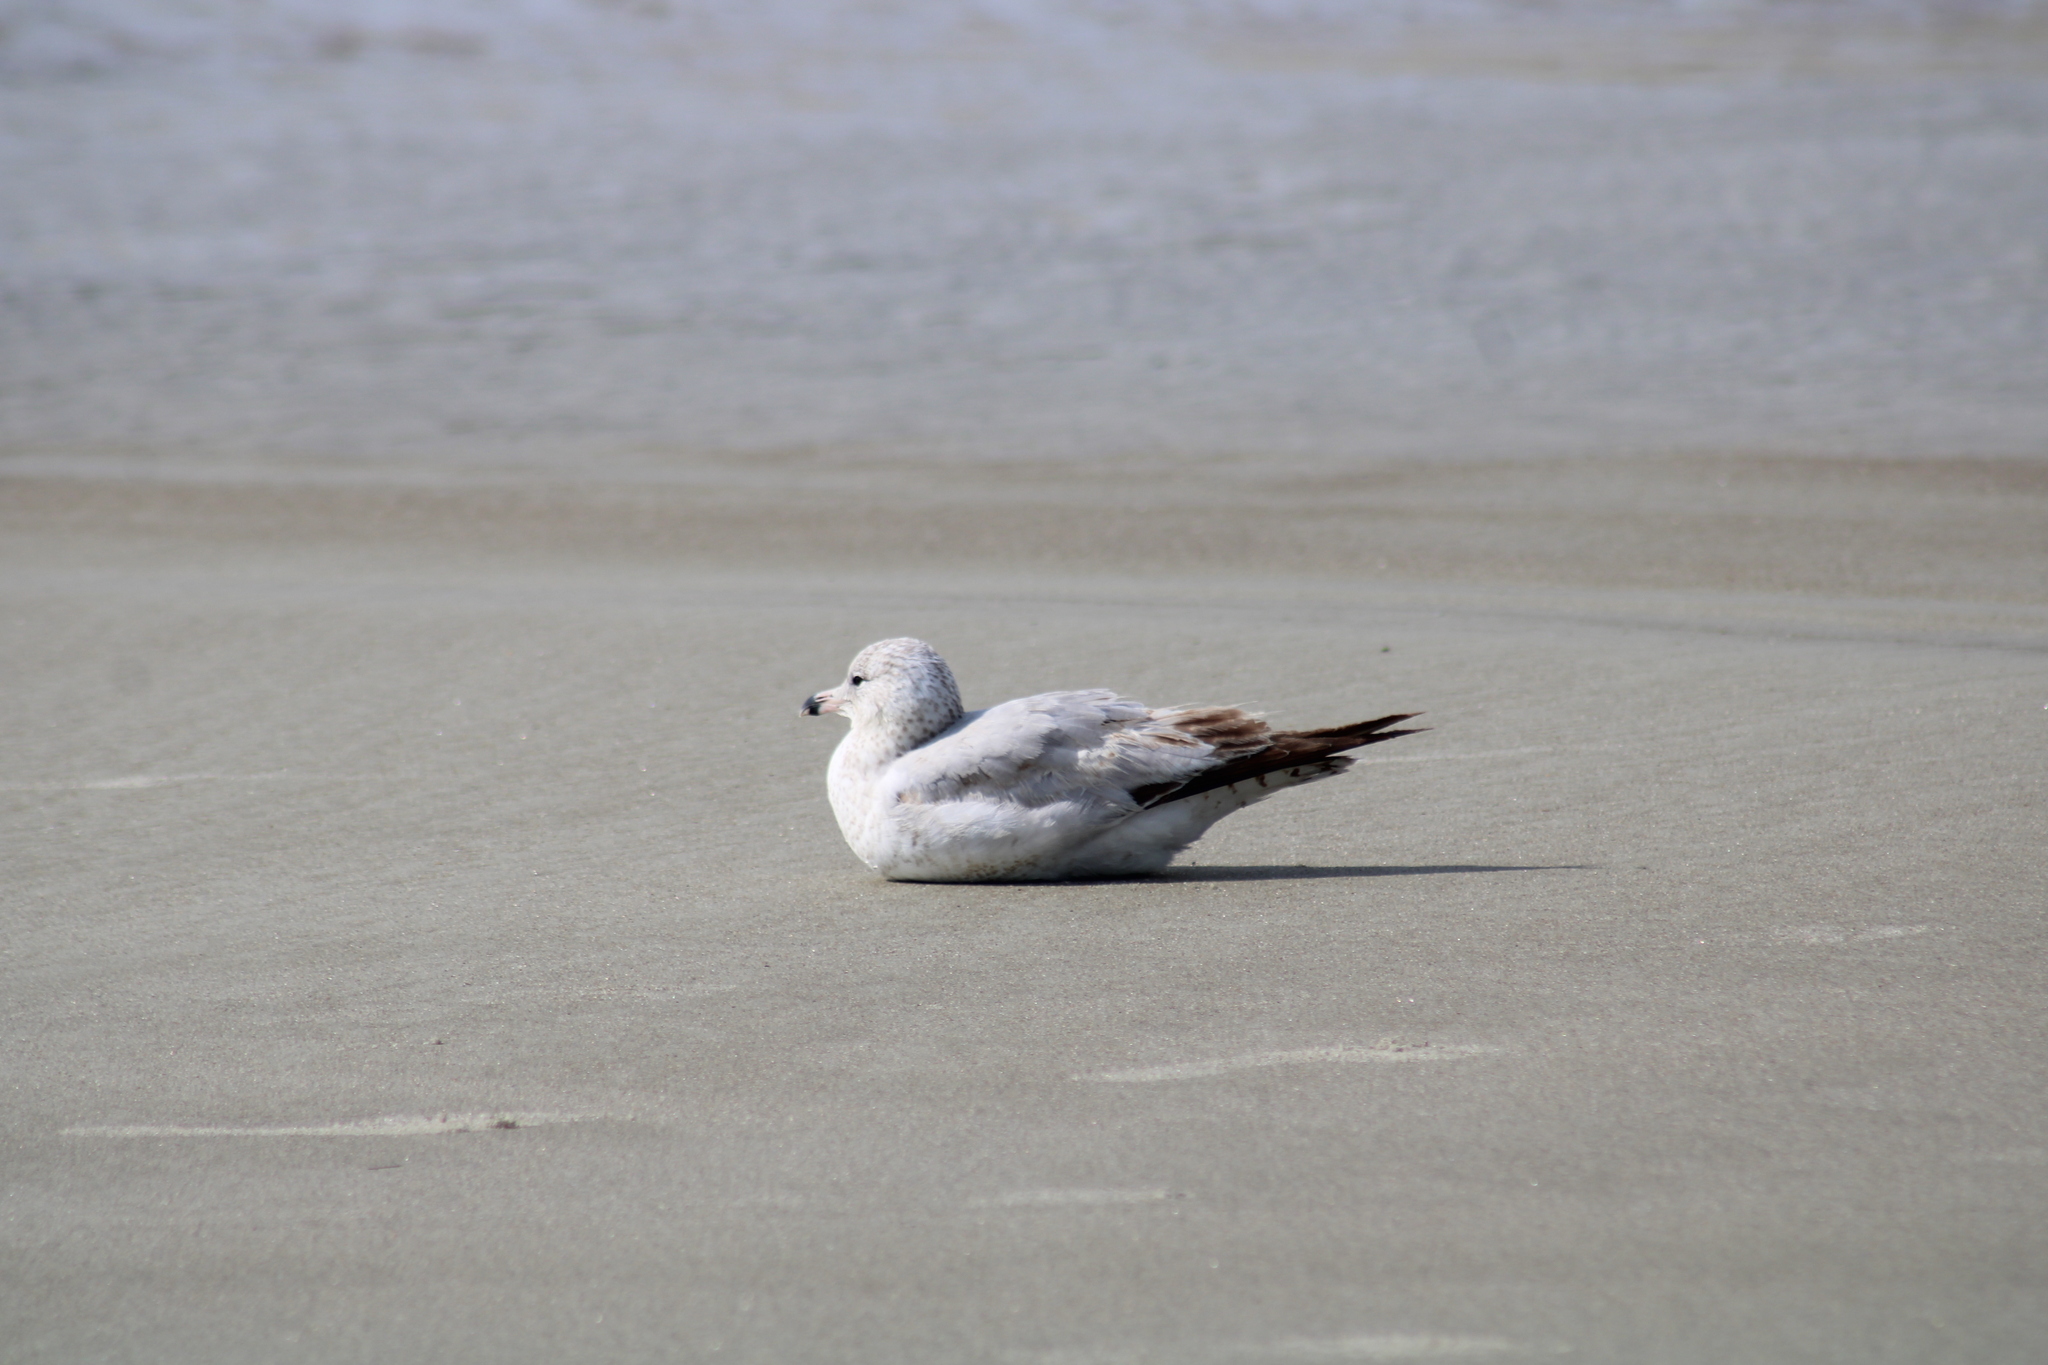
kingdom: Animalia
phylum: Chordata
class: Aves
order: Charadriiformes
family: Laridae
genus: Larus
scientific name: Larus delawarensis
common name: Ring-billed gull
